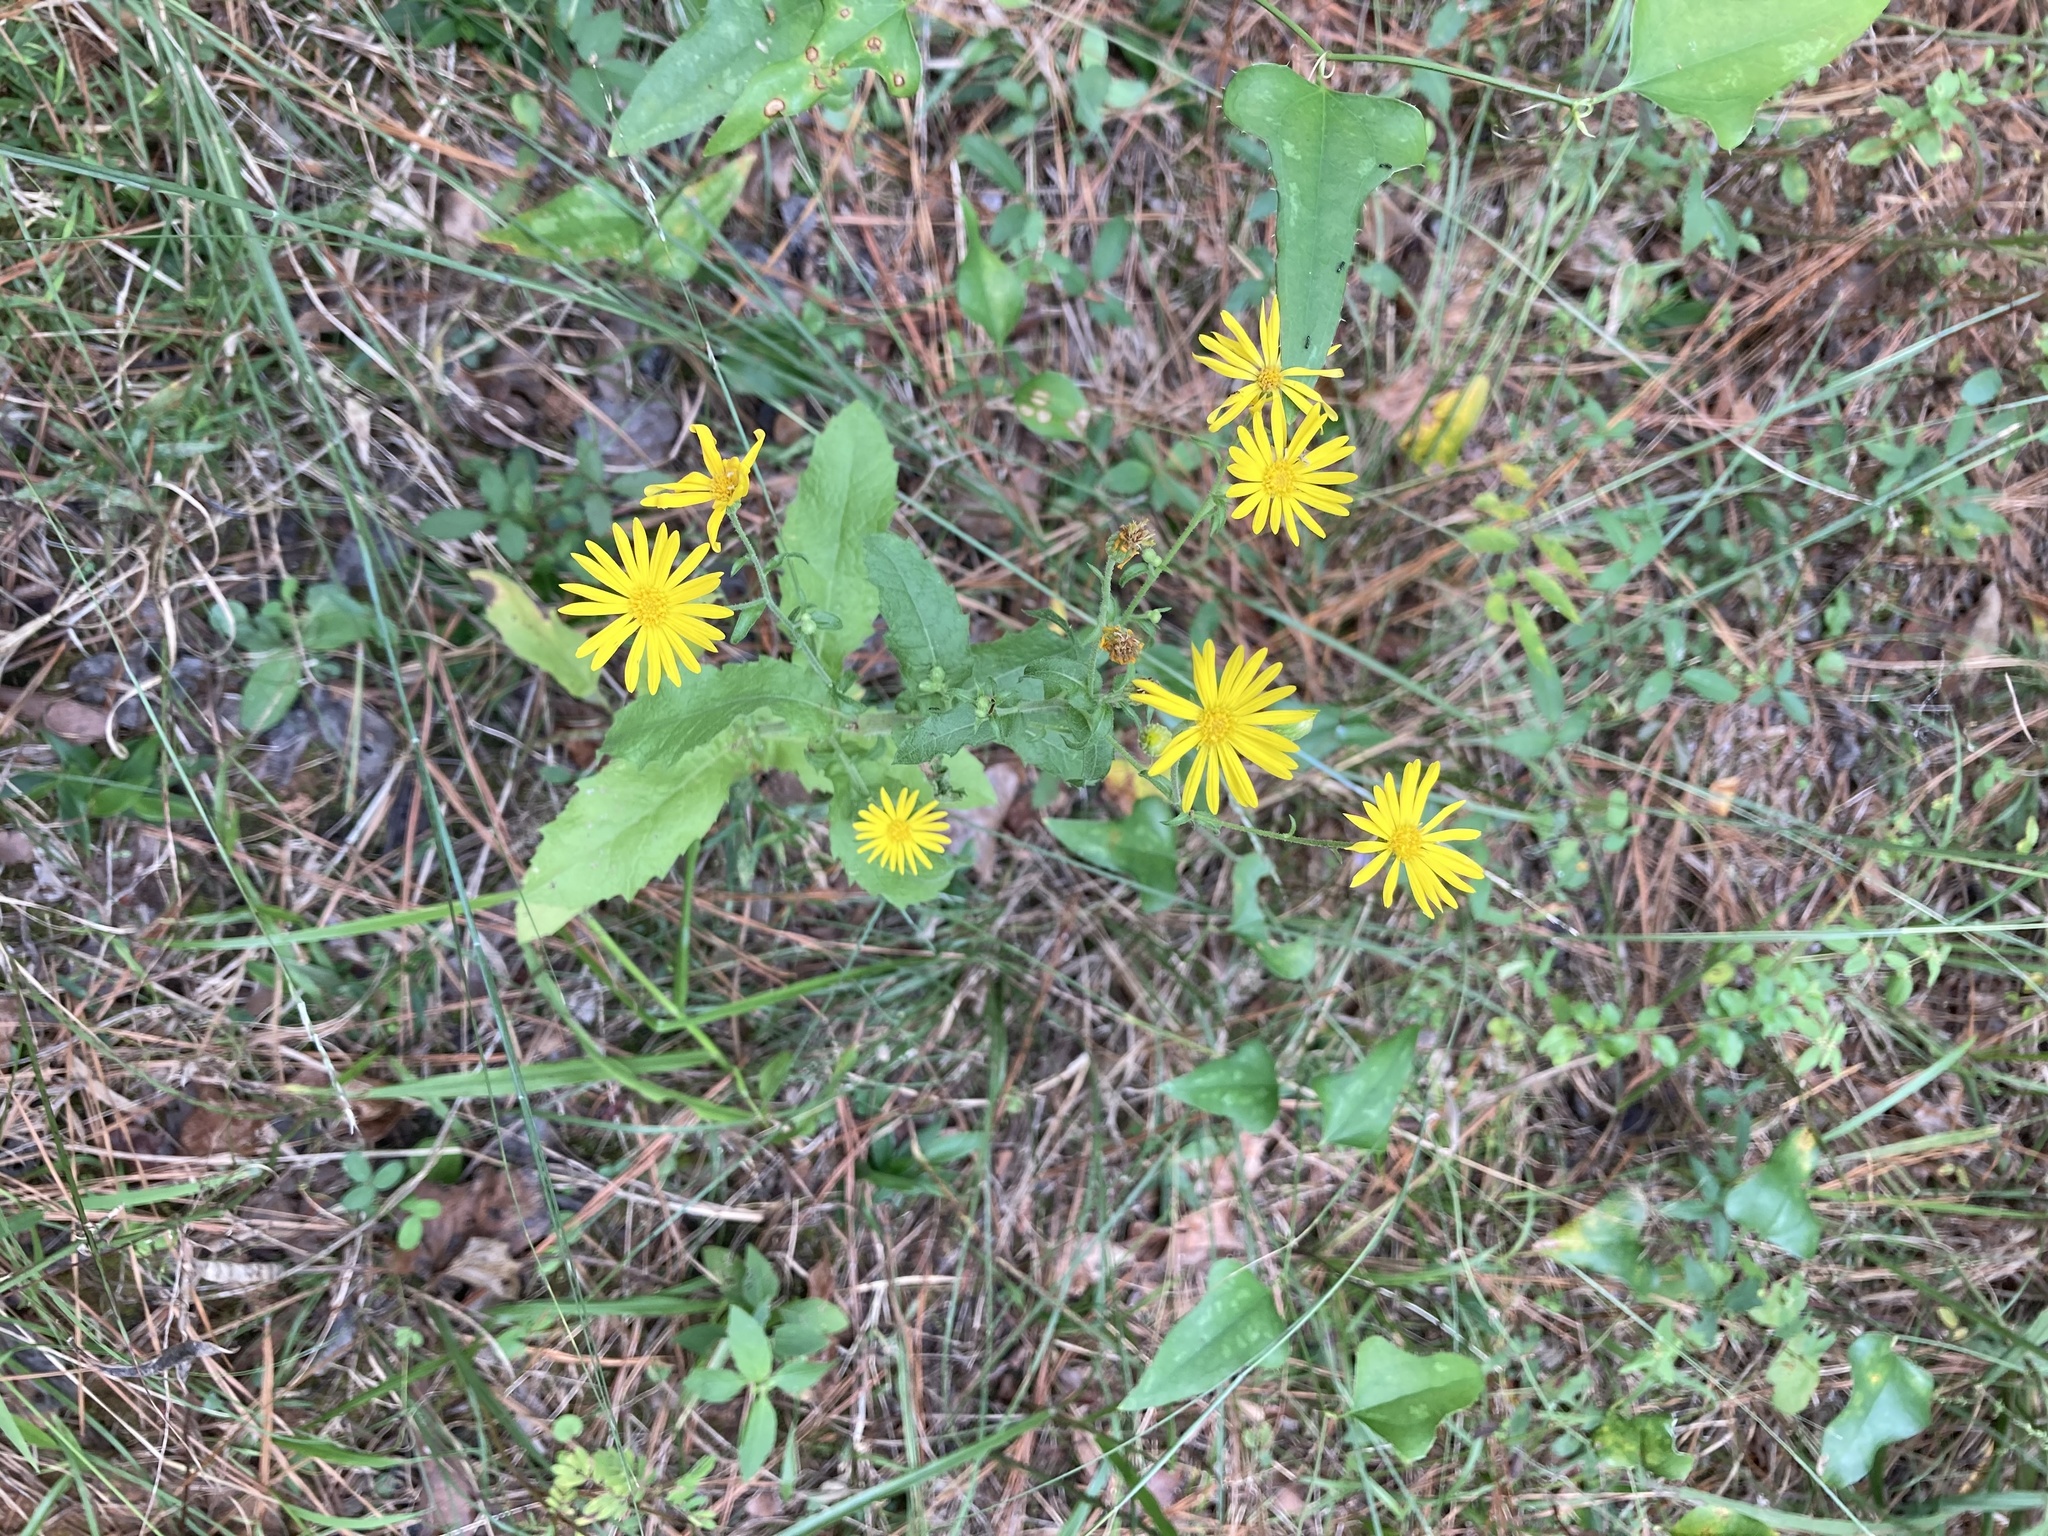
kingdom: Plantae
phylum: Tracheophyta
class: Magnoliopsida
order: Asterales
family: Asteraceae
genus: Heterotheca
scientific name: Heterotheca subaxillaris
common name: Camphorweed
